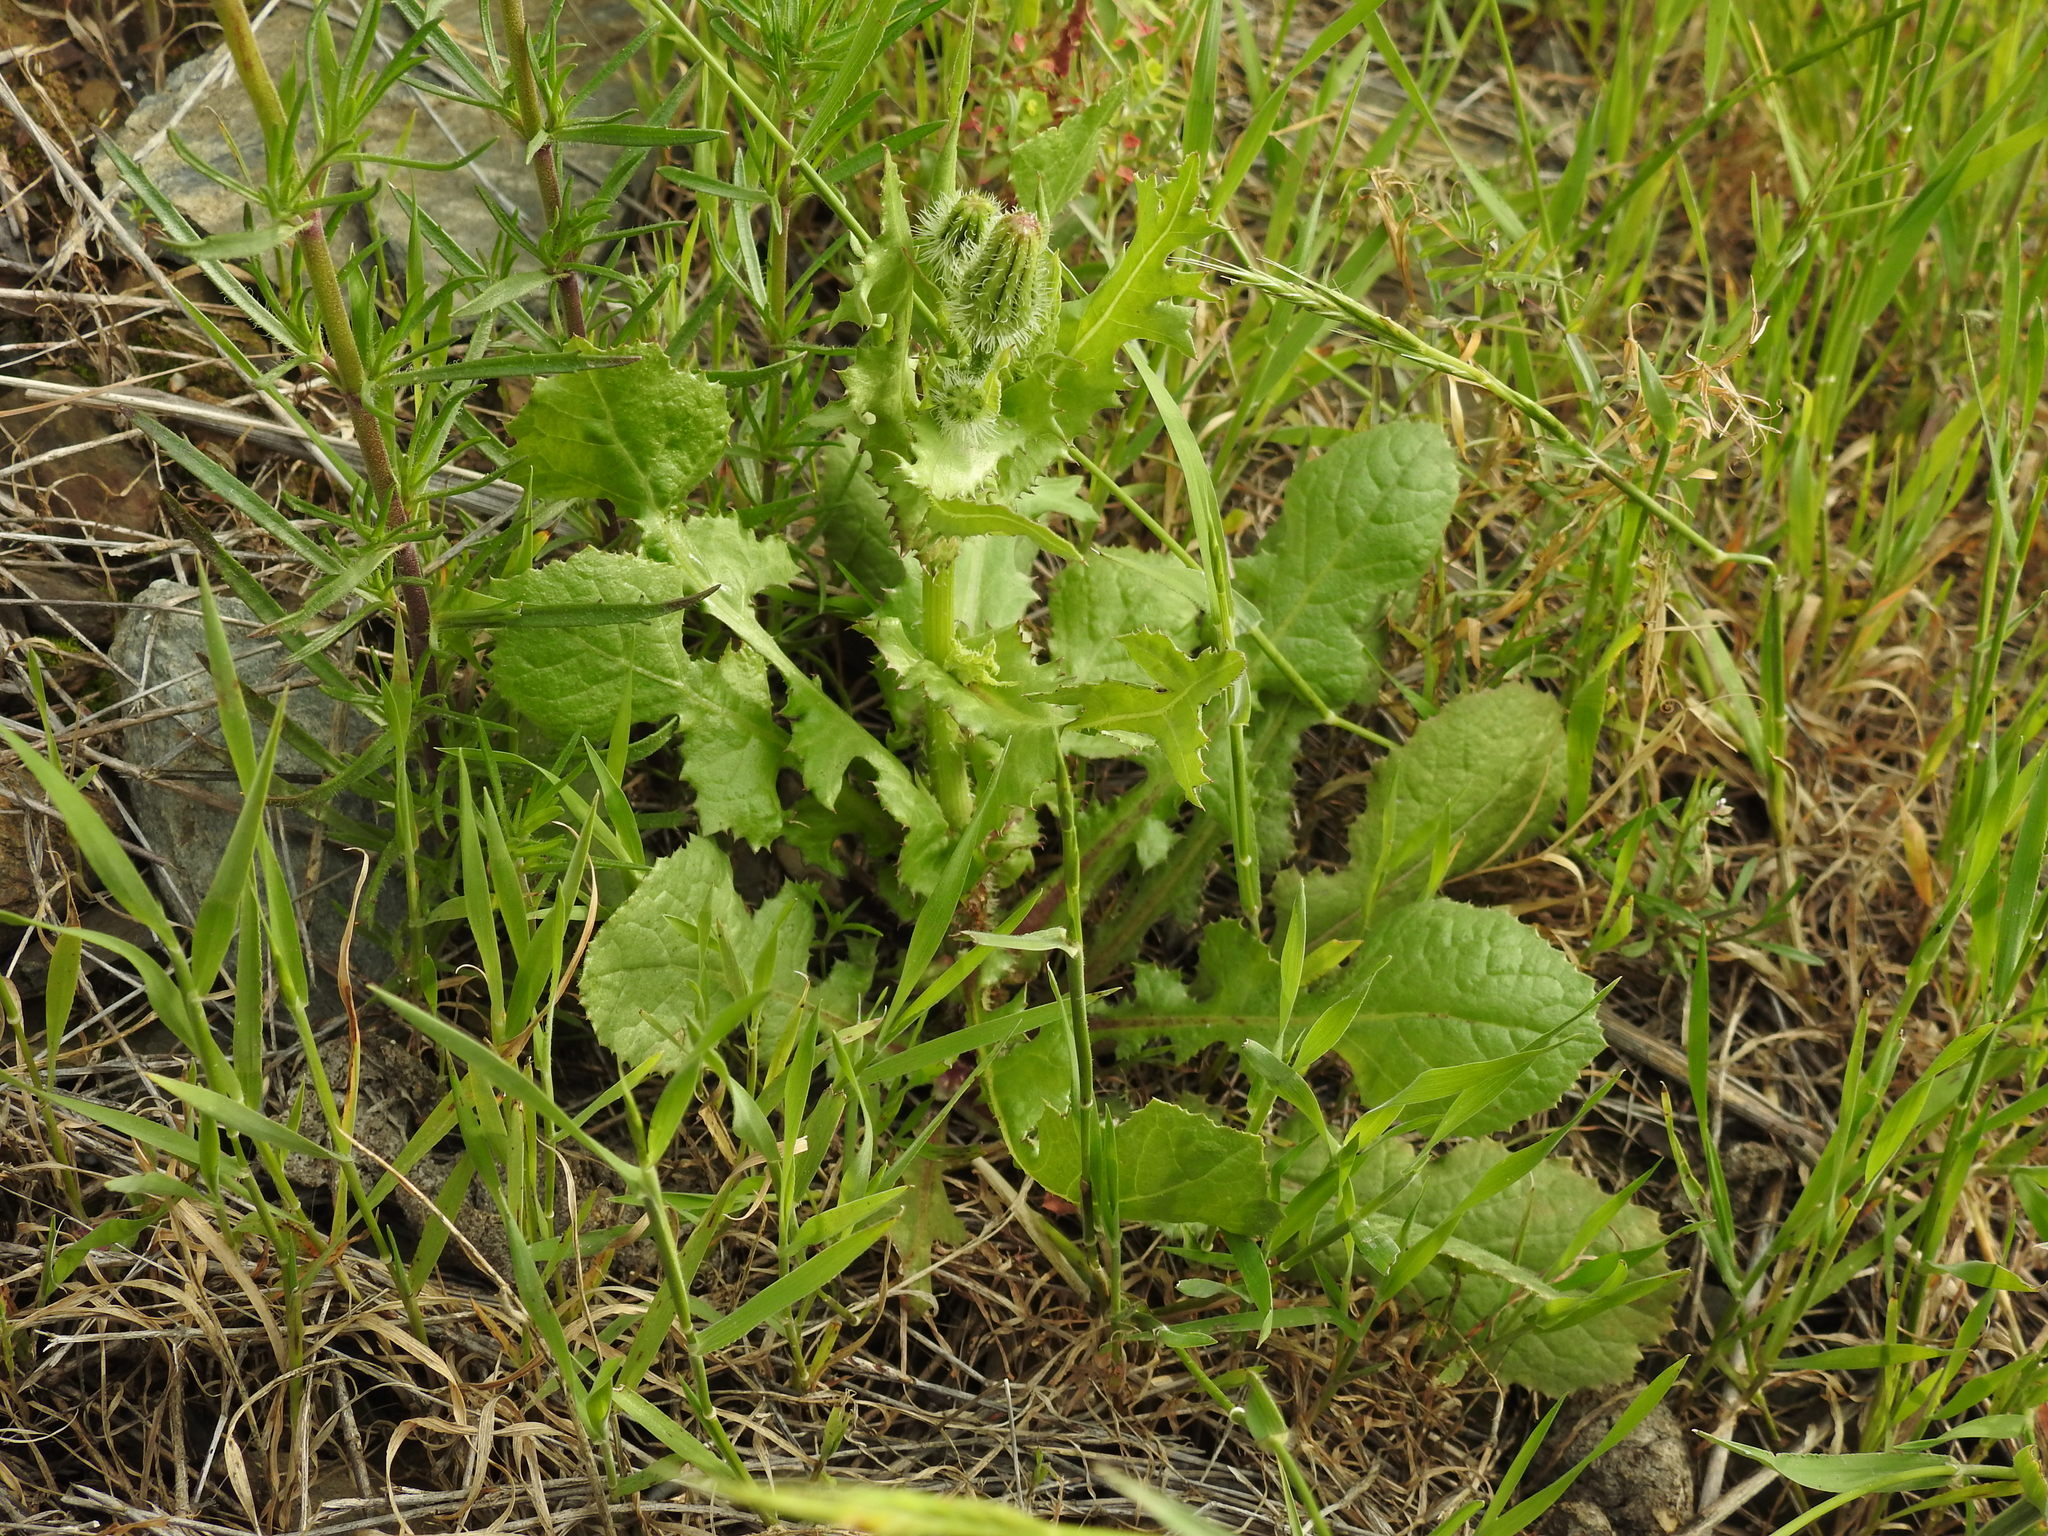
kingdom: Plantae
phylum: Tracheophyta
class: Magnoliopsida
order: Asterales
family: Asteraceae
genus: Urospermum
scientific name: Urospermum picroides
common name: False hawkbit
